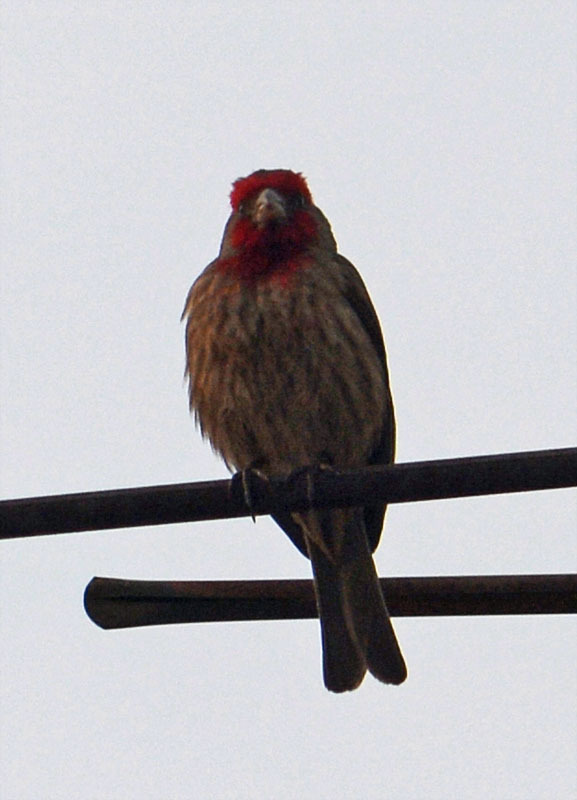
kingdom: Animalia
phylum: Chordata
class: Aves
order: Passeriformes
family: Fringillidae
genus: Haemorhous
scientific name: Haemorhous mexicanus
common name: House finch
